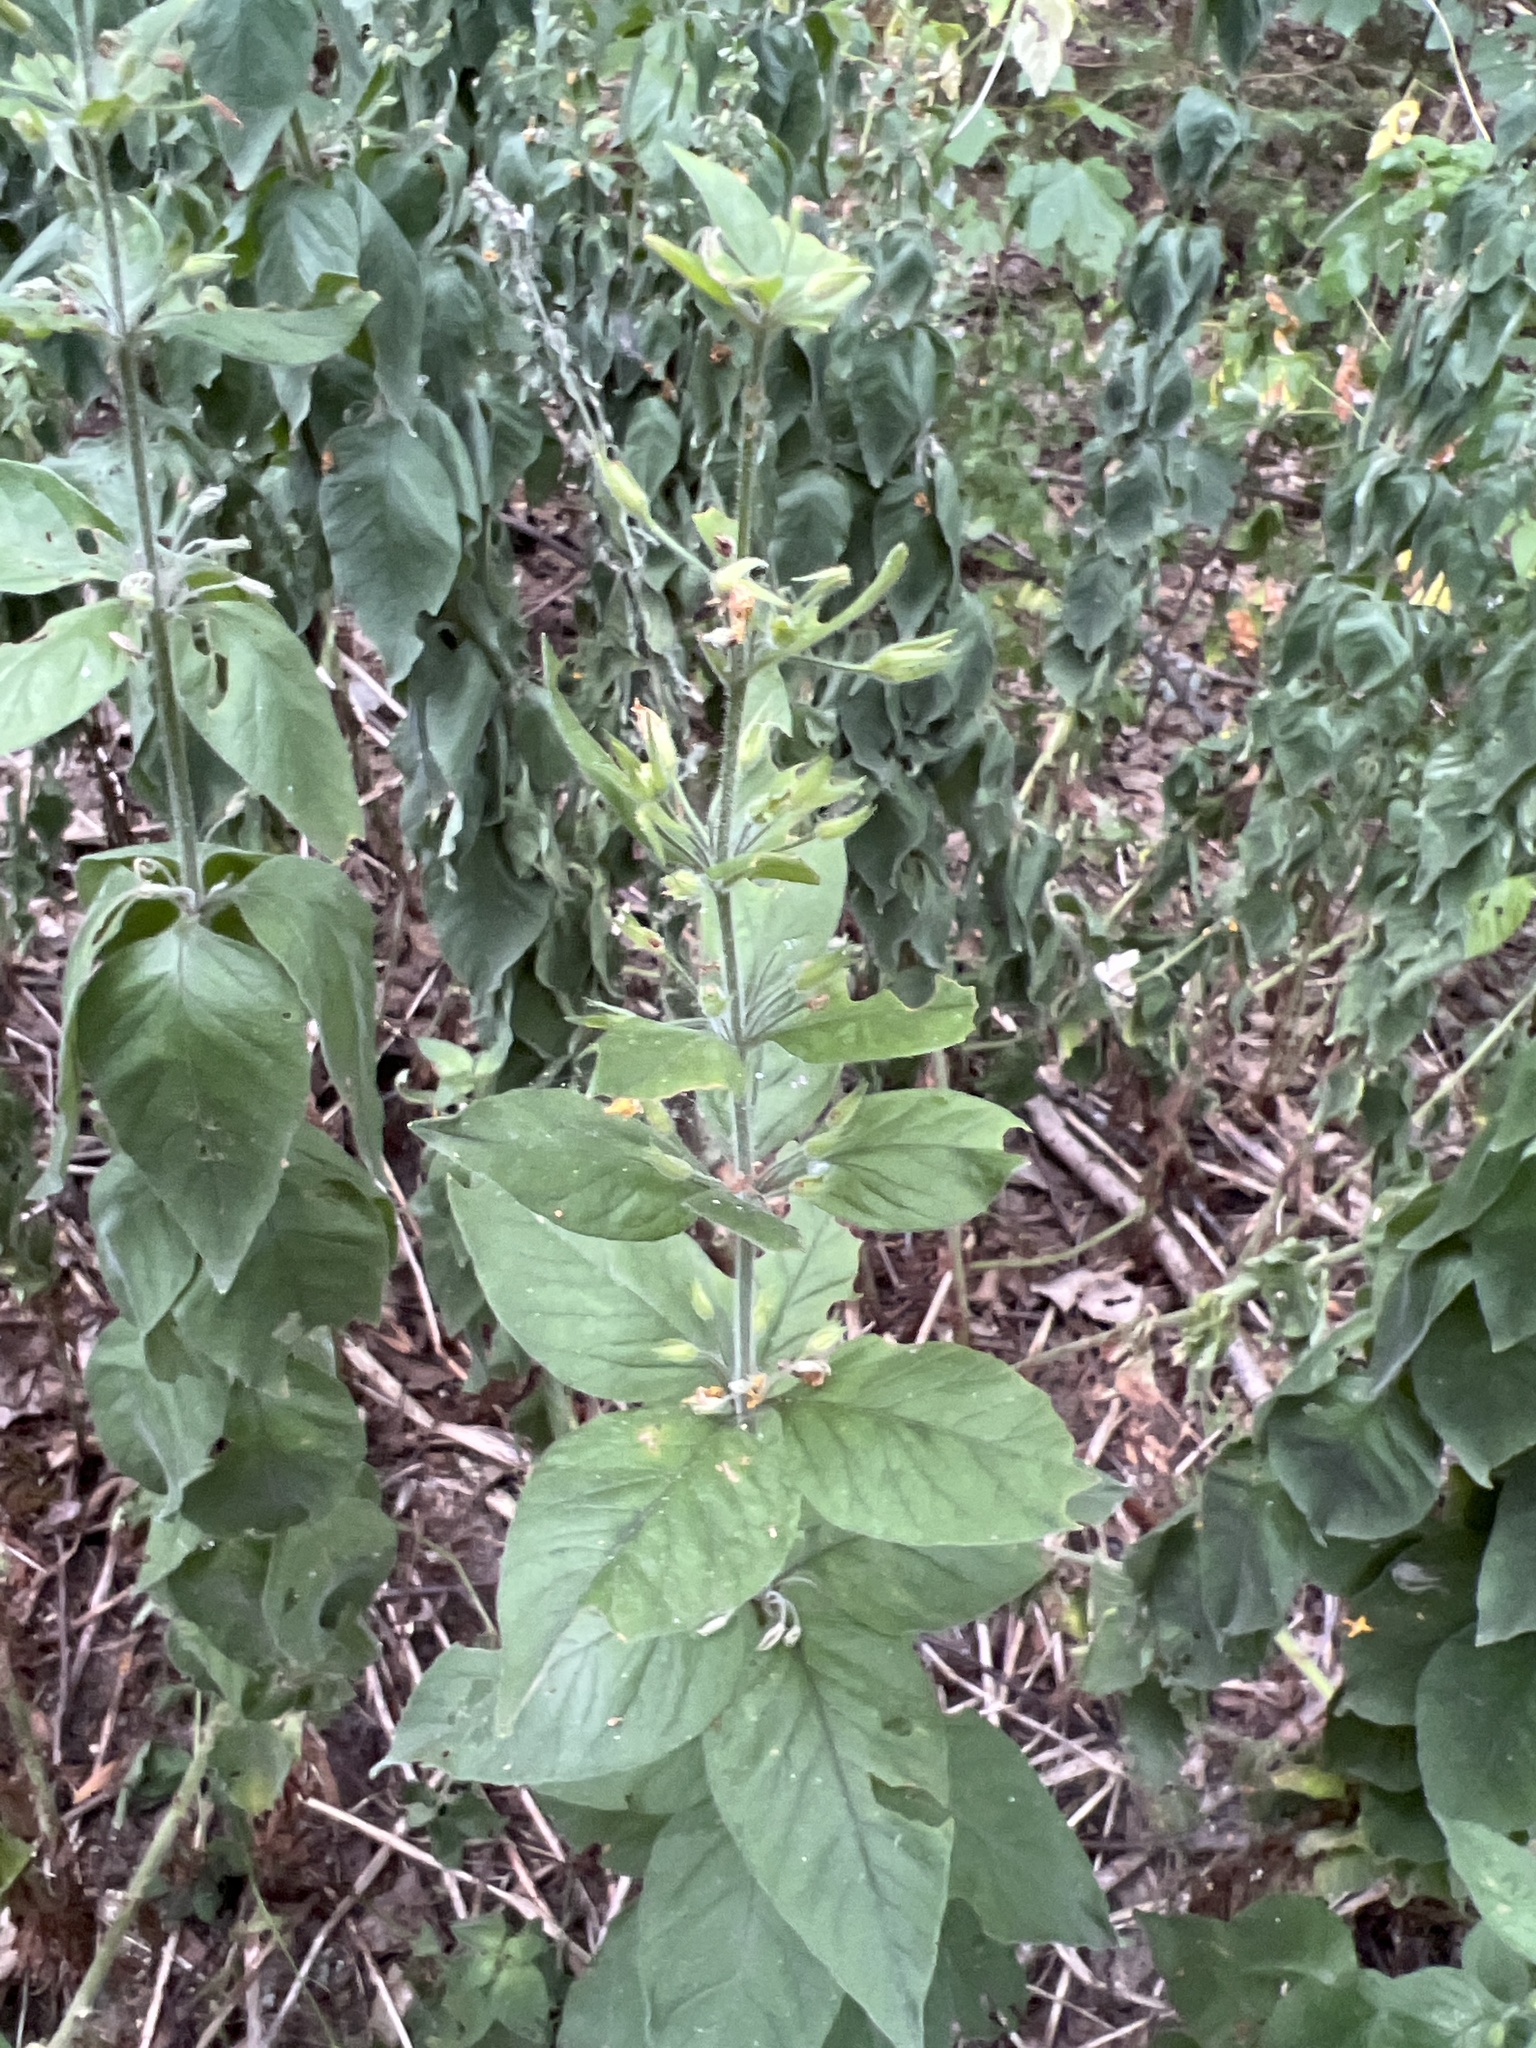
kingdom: Plantae
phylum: Tracheophyta
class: Magnoliopsida
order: Ericales
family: Primulaceae
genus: Lysimachia
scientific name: Lysimachia punctata
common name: Dotted loosestrife
